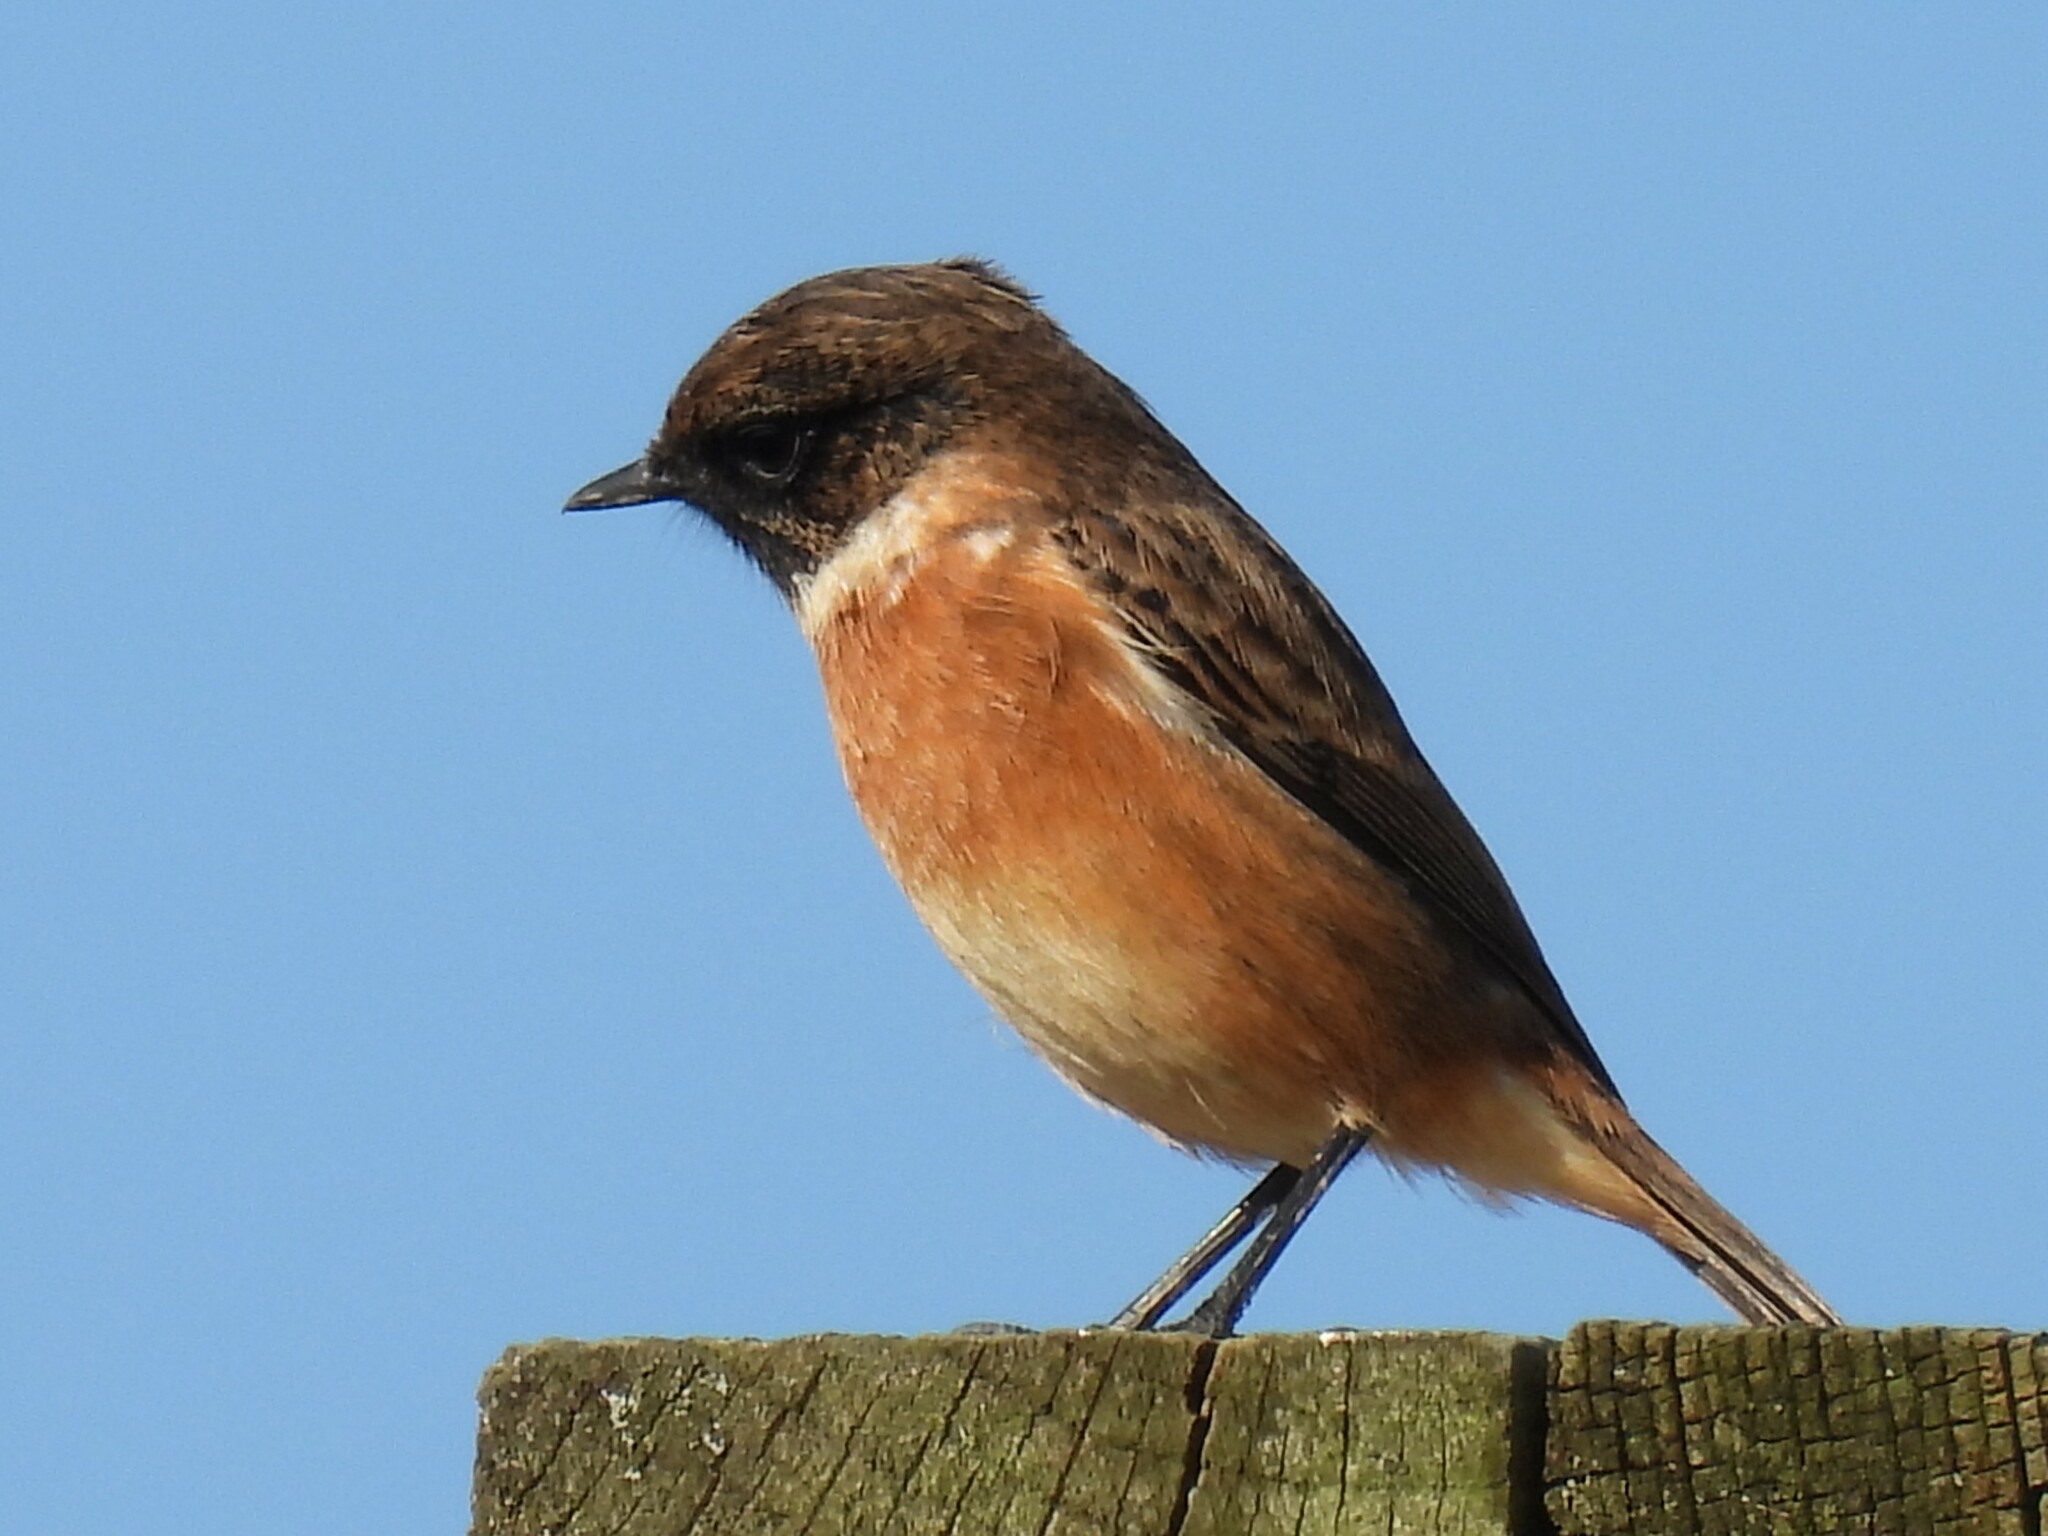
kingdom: Animalia
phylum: Chordata
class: Aves
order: Passeriformes
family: Muscicapidae
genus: Saxicola
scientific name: Saxicola rubicola
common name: European stonechat
